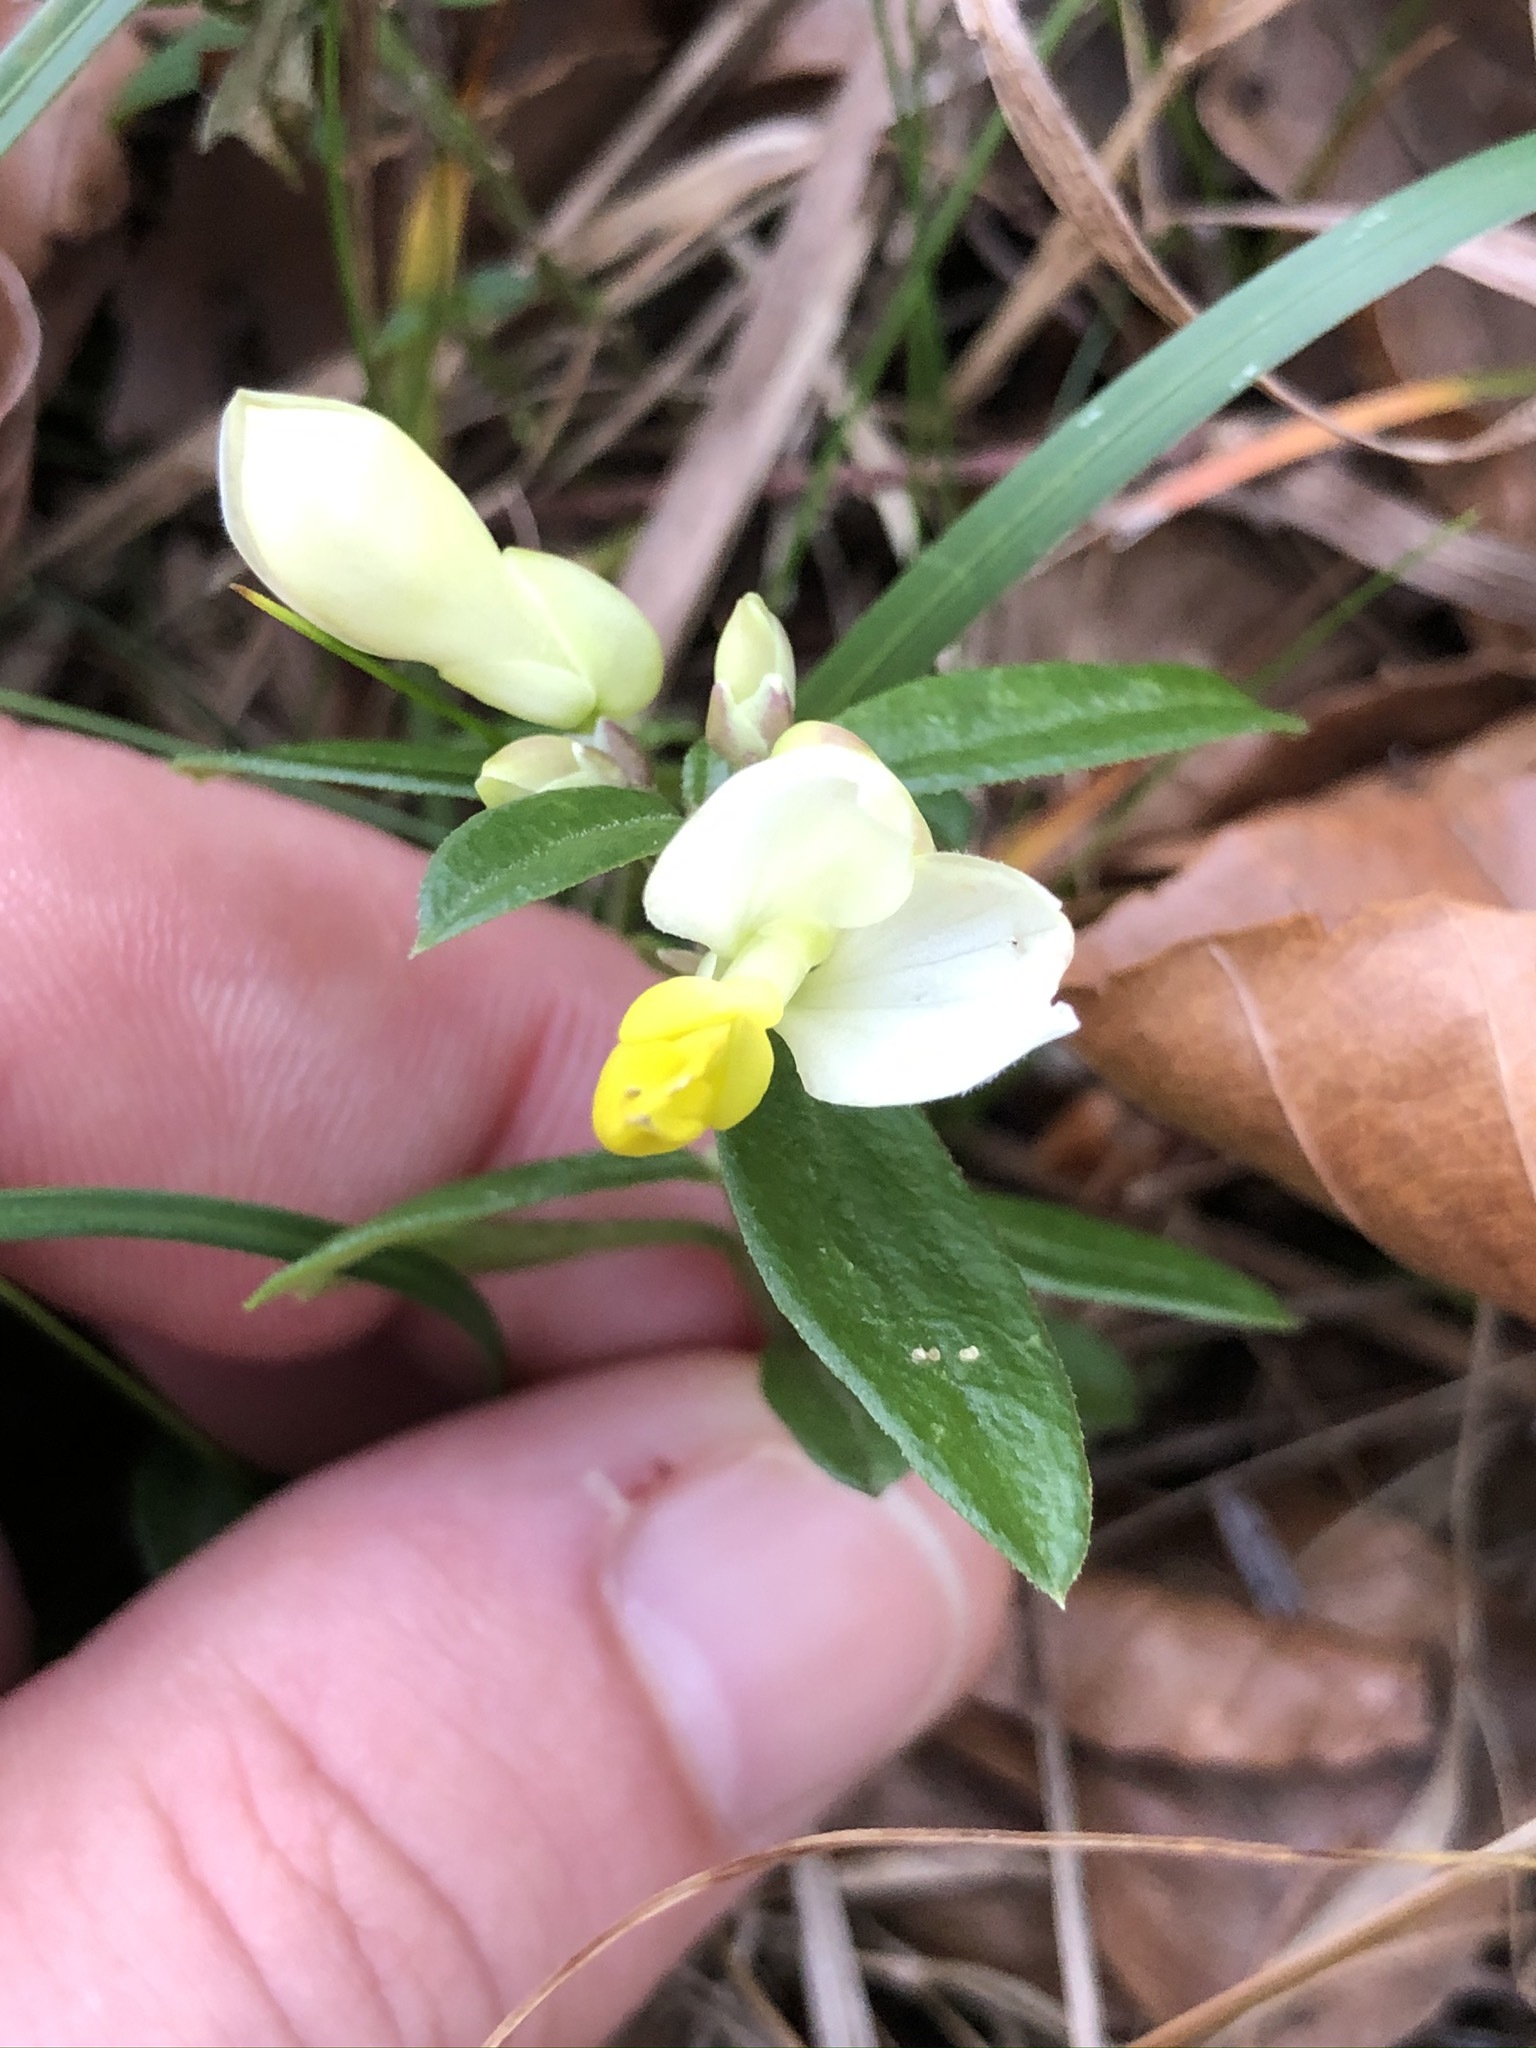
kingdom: Plantae
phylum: Tracheophyta
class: Magnoliopsida
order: Fabales
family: Polygalaceae
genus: Polygaloides
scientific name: Polygaloides chamaebuxus
